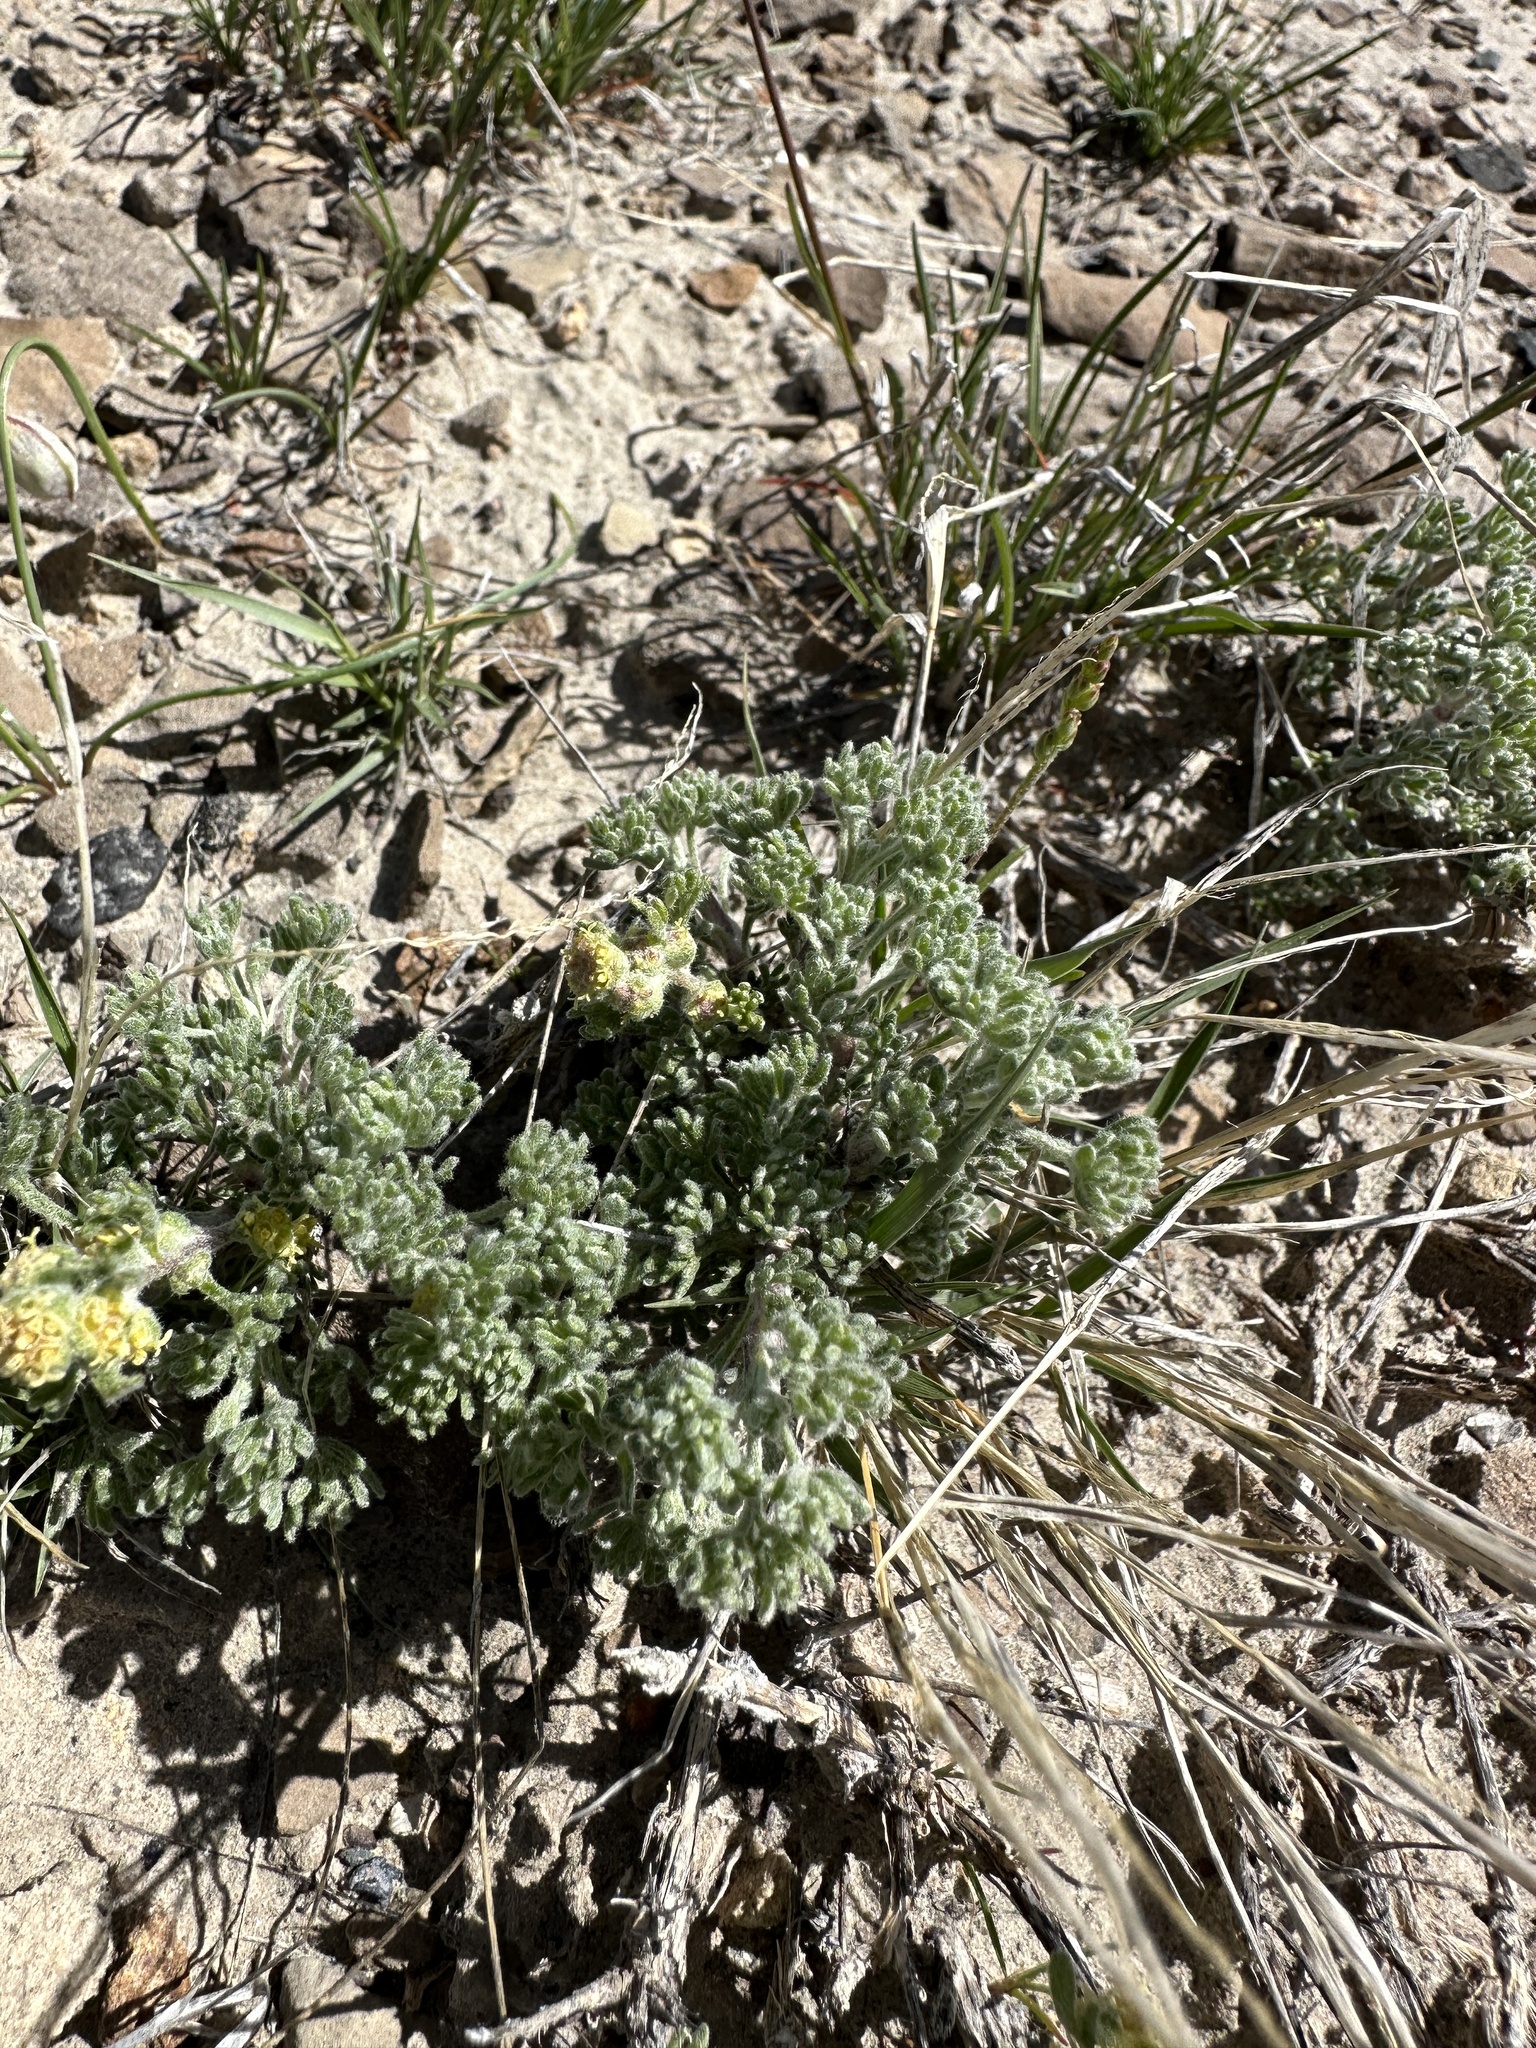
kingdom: Plantae
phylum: Tracheophyta
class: Magnoliopsida
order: Asterales
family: Asteraceae
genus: Artemisia
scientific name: Artemisia spinescens
